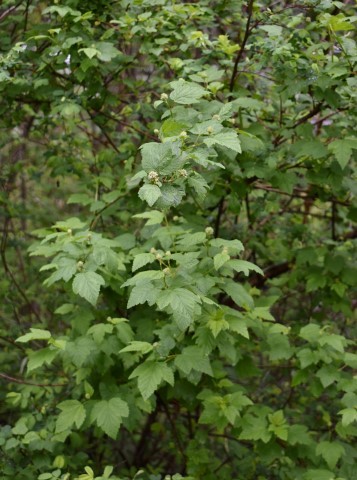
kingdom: Plantae
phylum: Tracheophyta
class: Magnoliopsida
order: Rosales
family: Rosaceae
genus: Physocarpus
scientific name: Physocarpus capitatus
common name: Pacific ninebark
